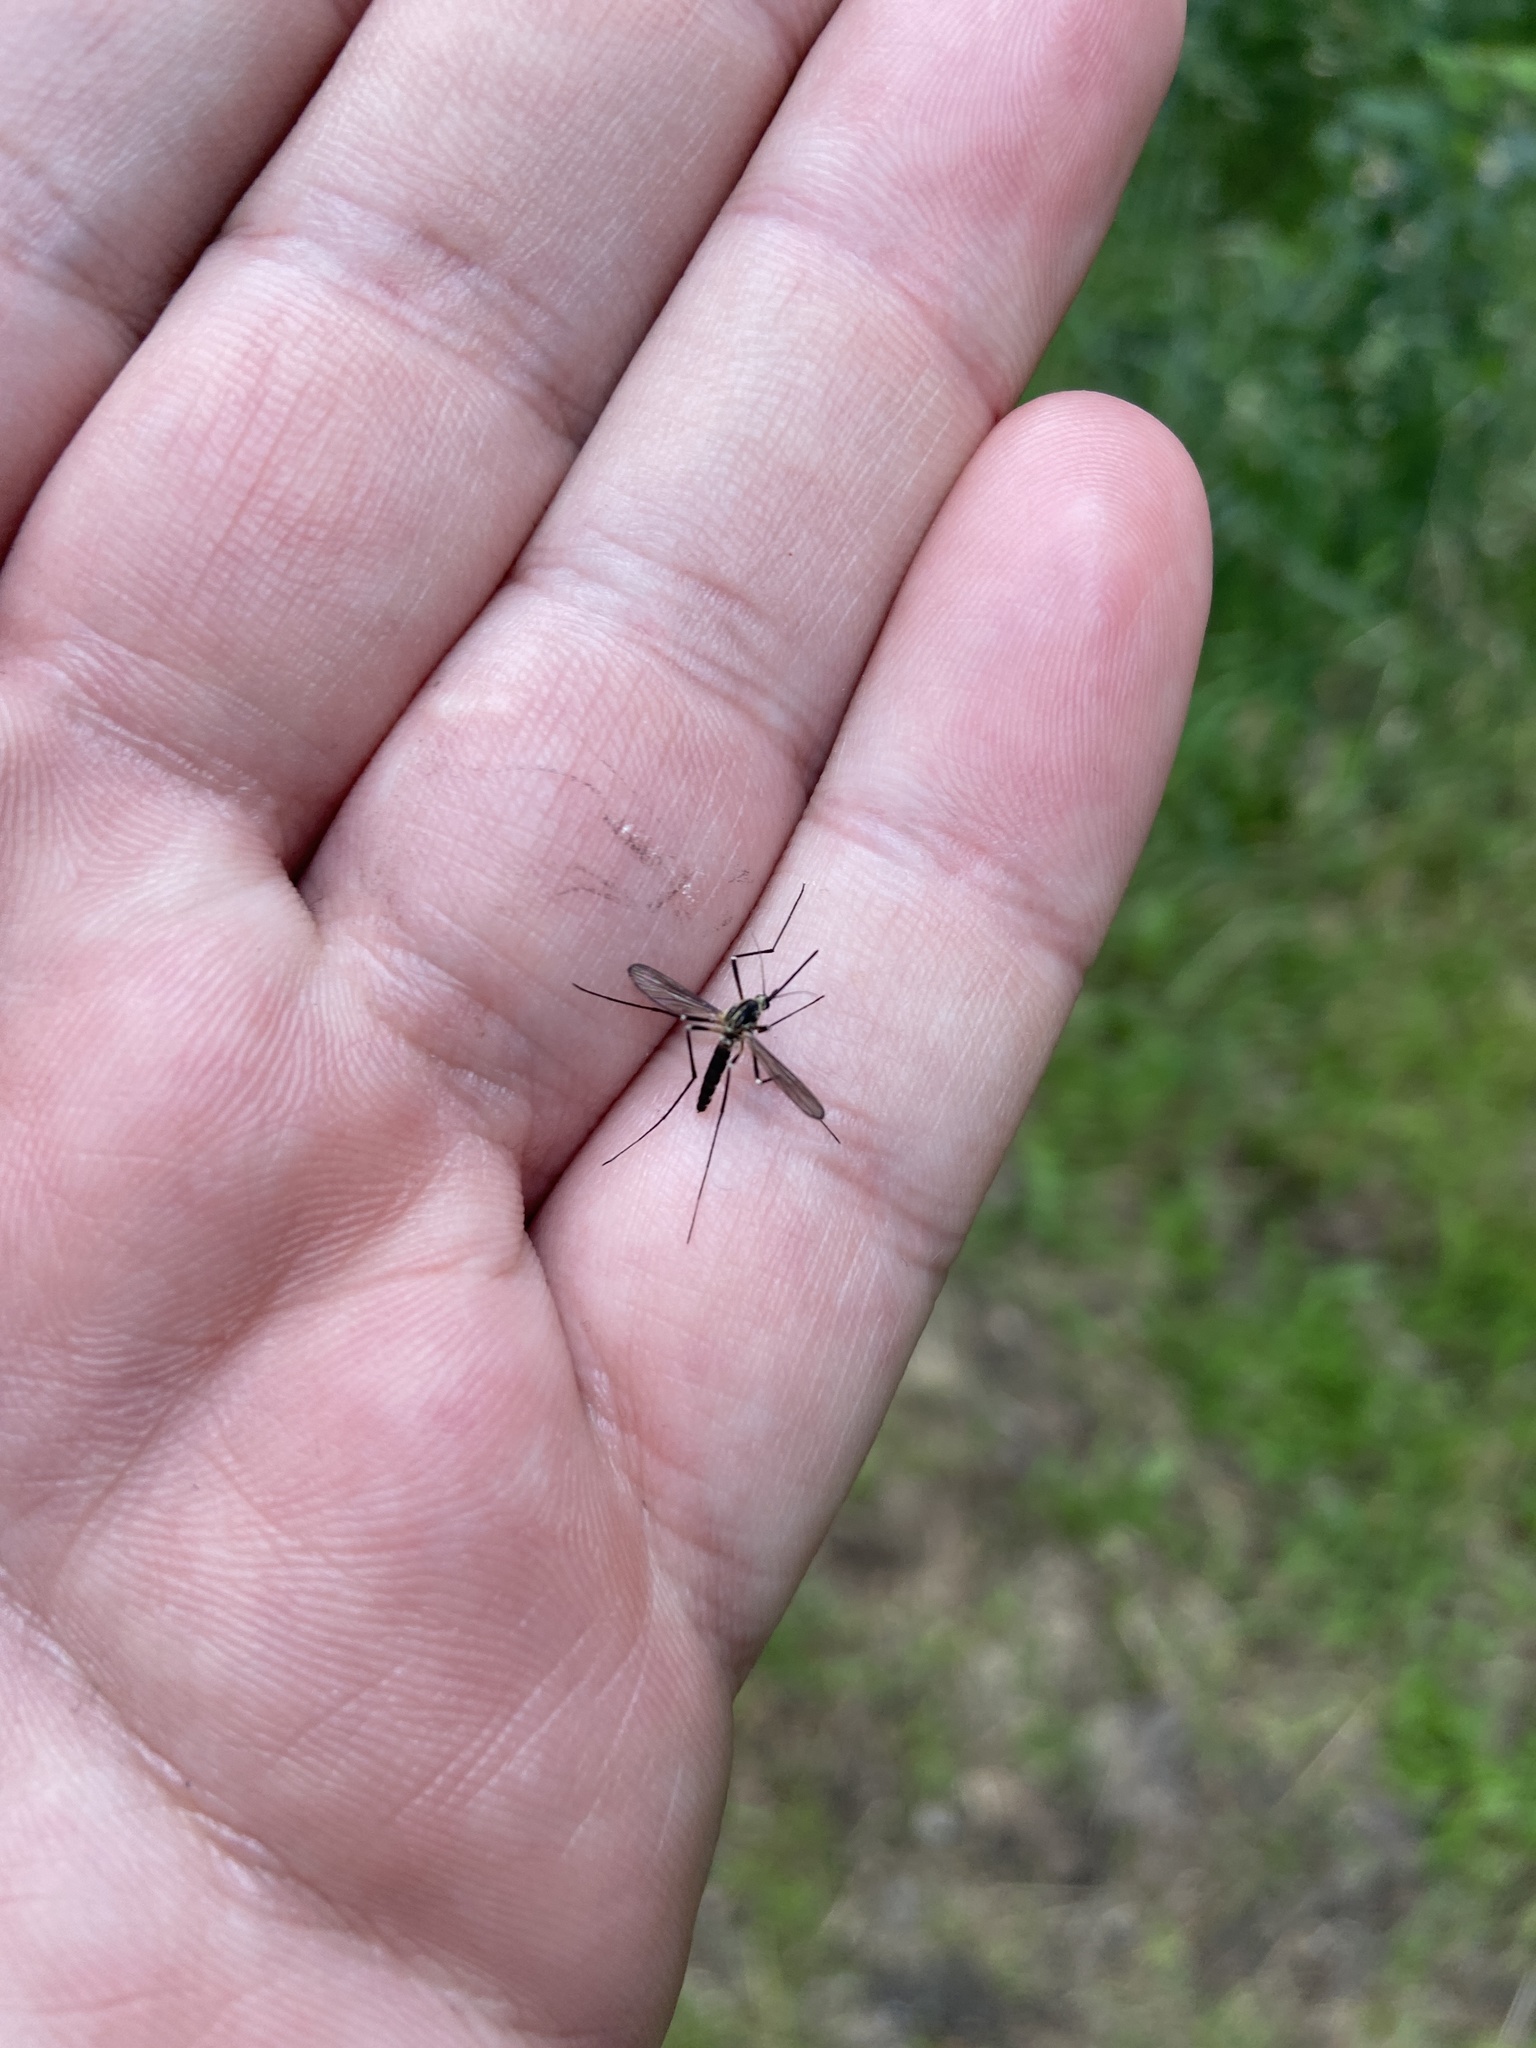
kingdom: Animalia
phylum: Arthropoda
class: Insecta
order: Diptera
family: Culicidae
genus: Aedes
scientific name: Aedes geniculatus
